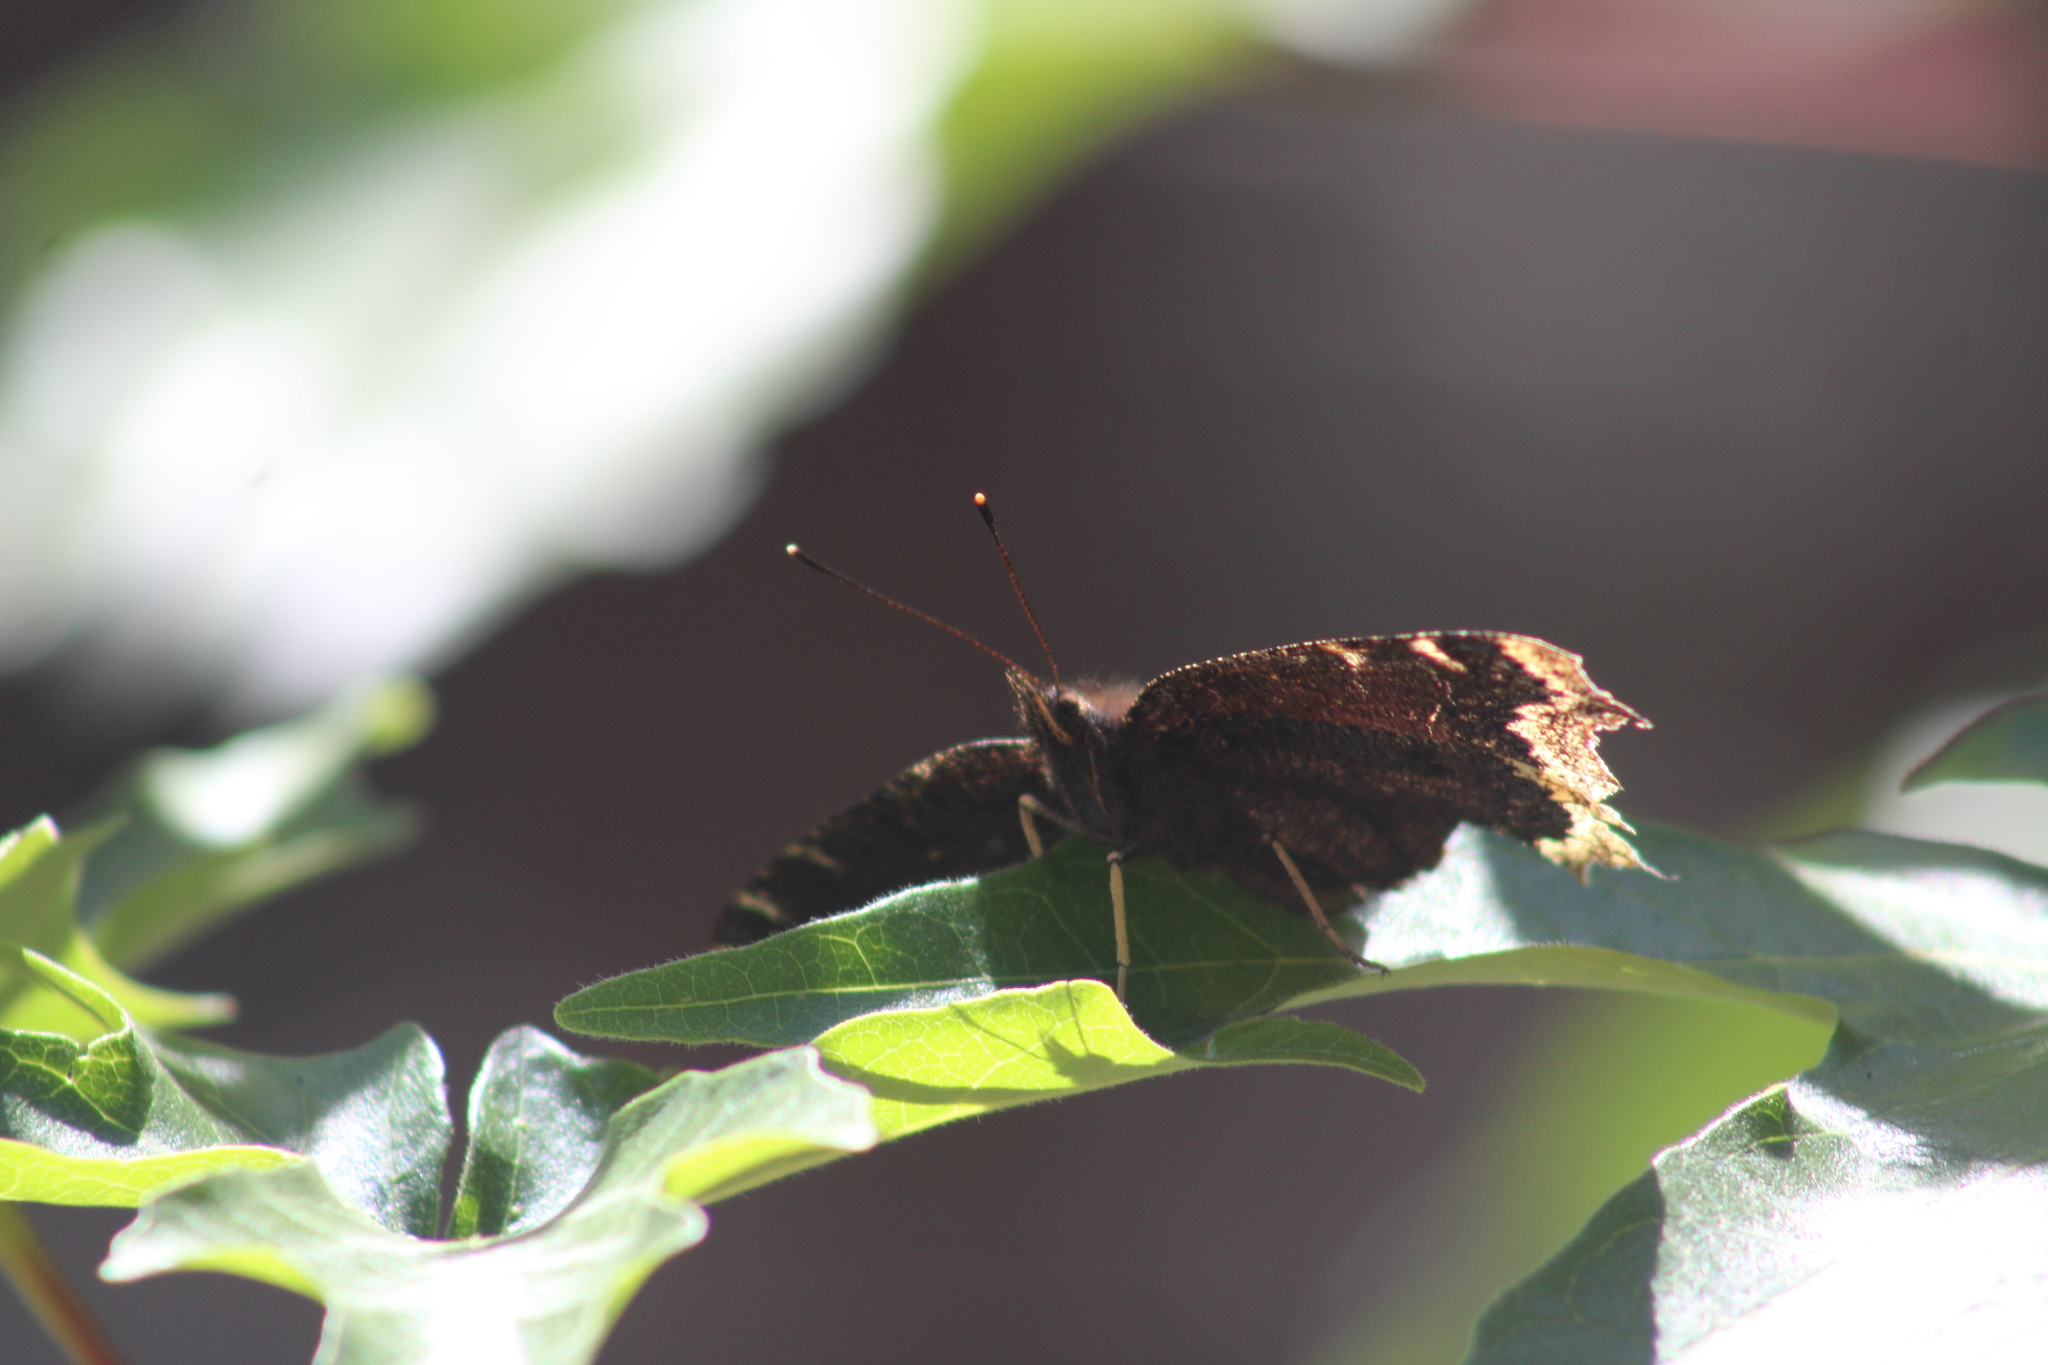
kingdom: Animalia
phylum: Arthropoda
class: Insecta
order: Lepidoptera
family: Nymphalidae
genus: Nymphalis
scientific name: Nymphalis antiopa
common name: Camberwell beauty
